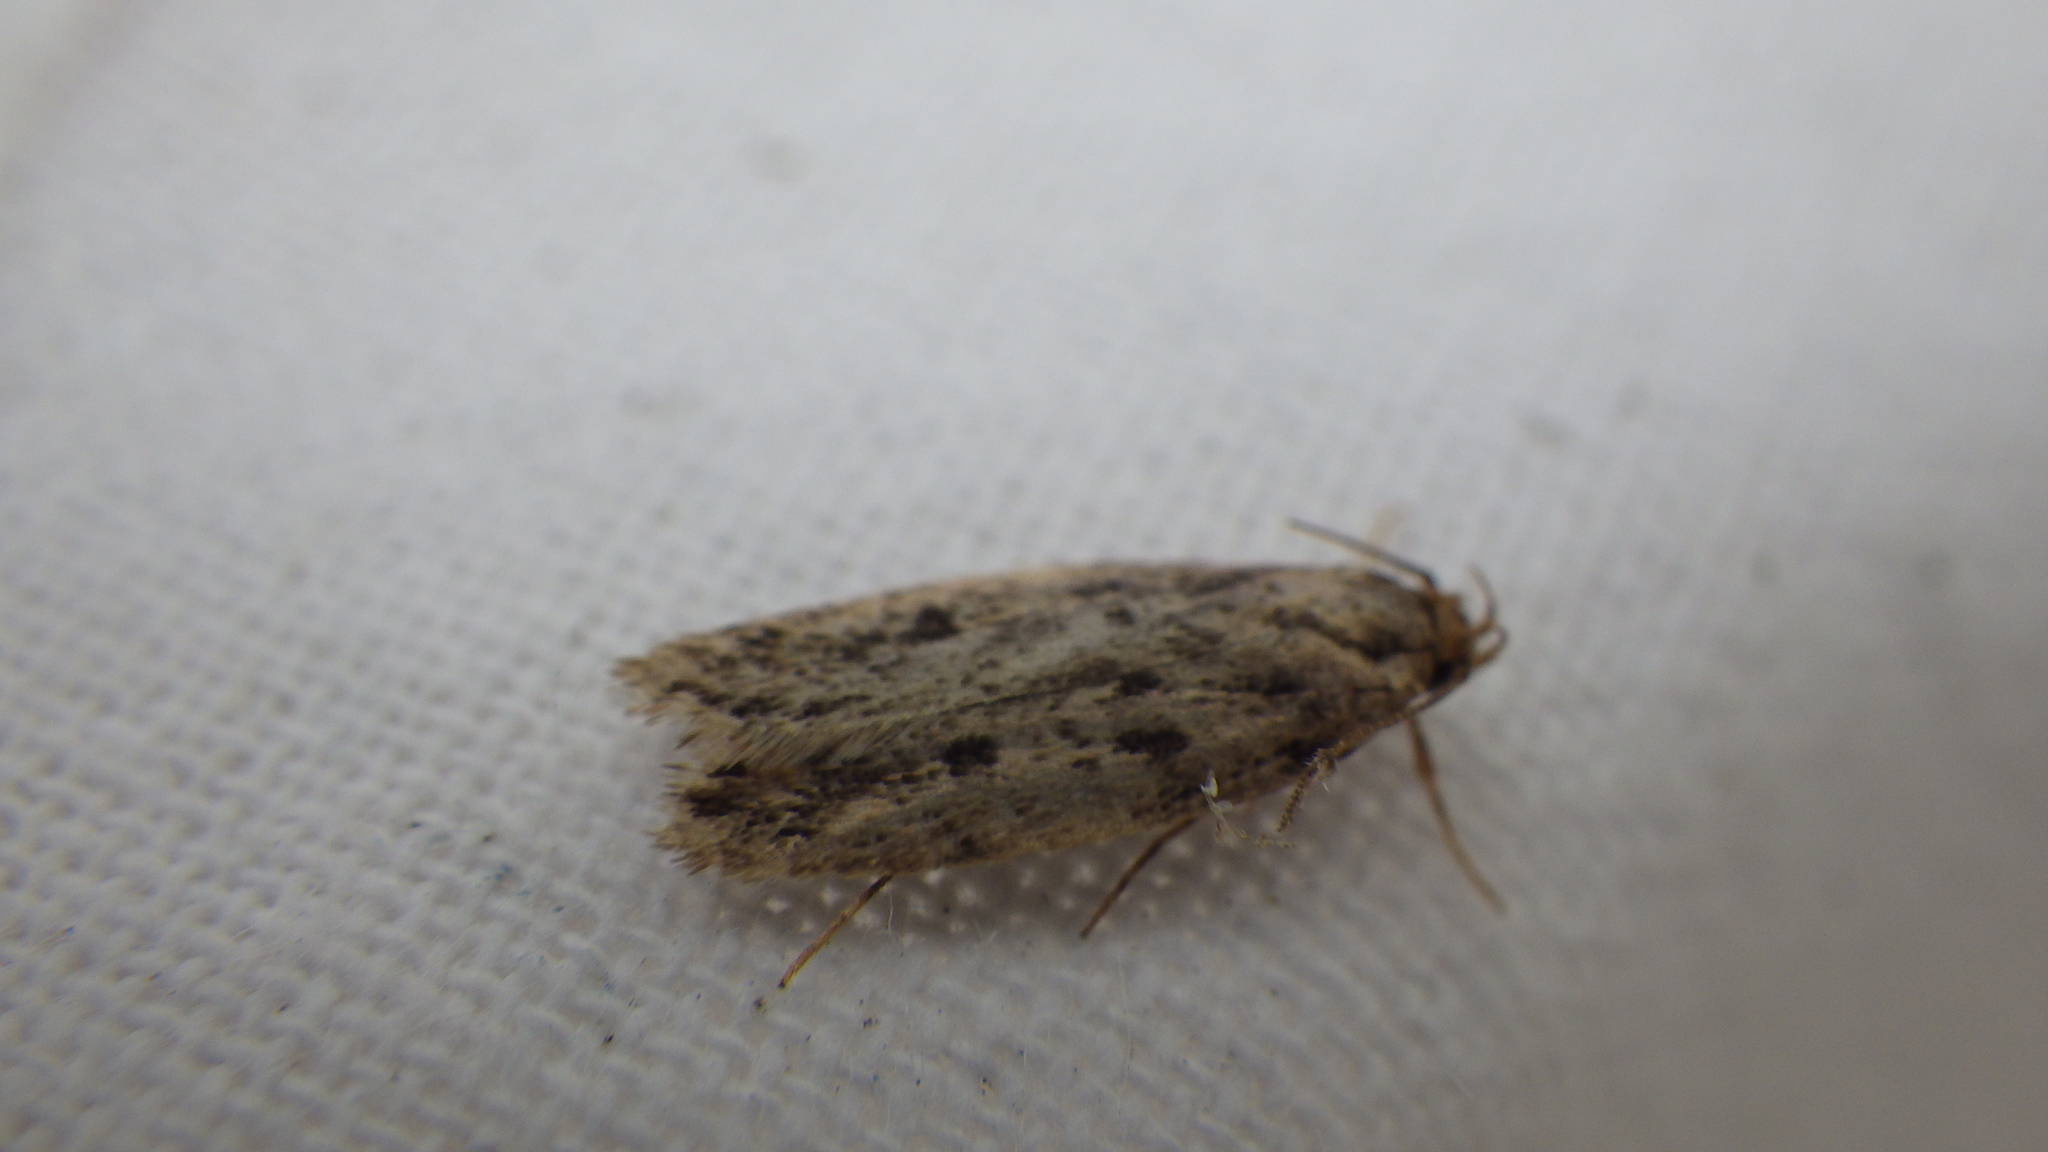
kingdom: Animalia
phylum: Arthropoda
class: Insecta
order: Lepidoptera
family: Oecophoridae
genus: Hofmannophila
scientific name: Hofmannophila pseudospretella
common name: Brown house moth
